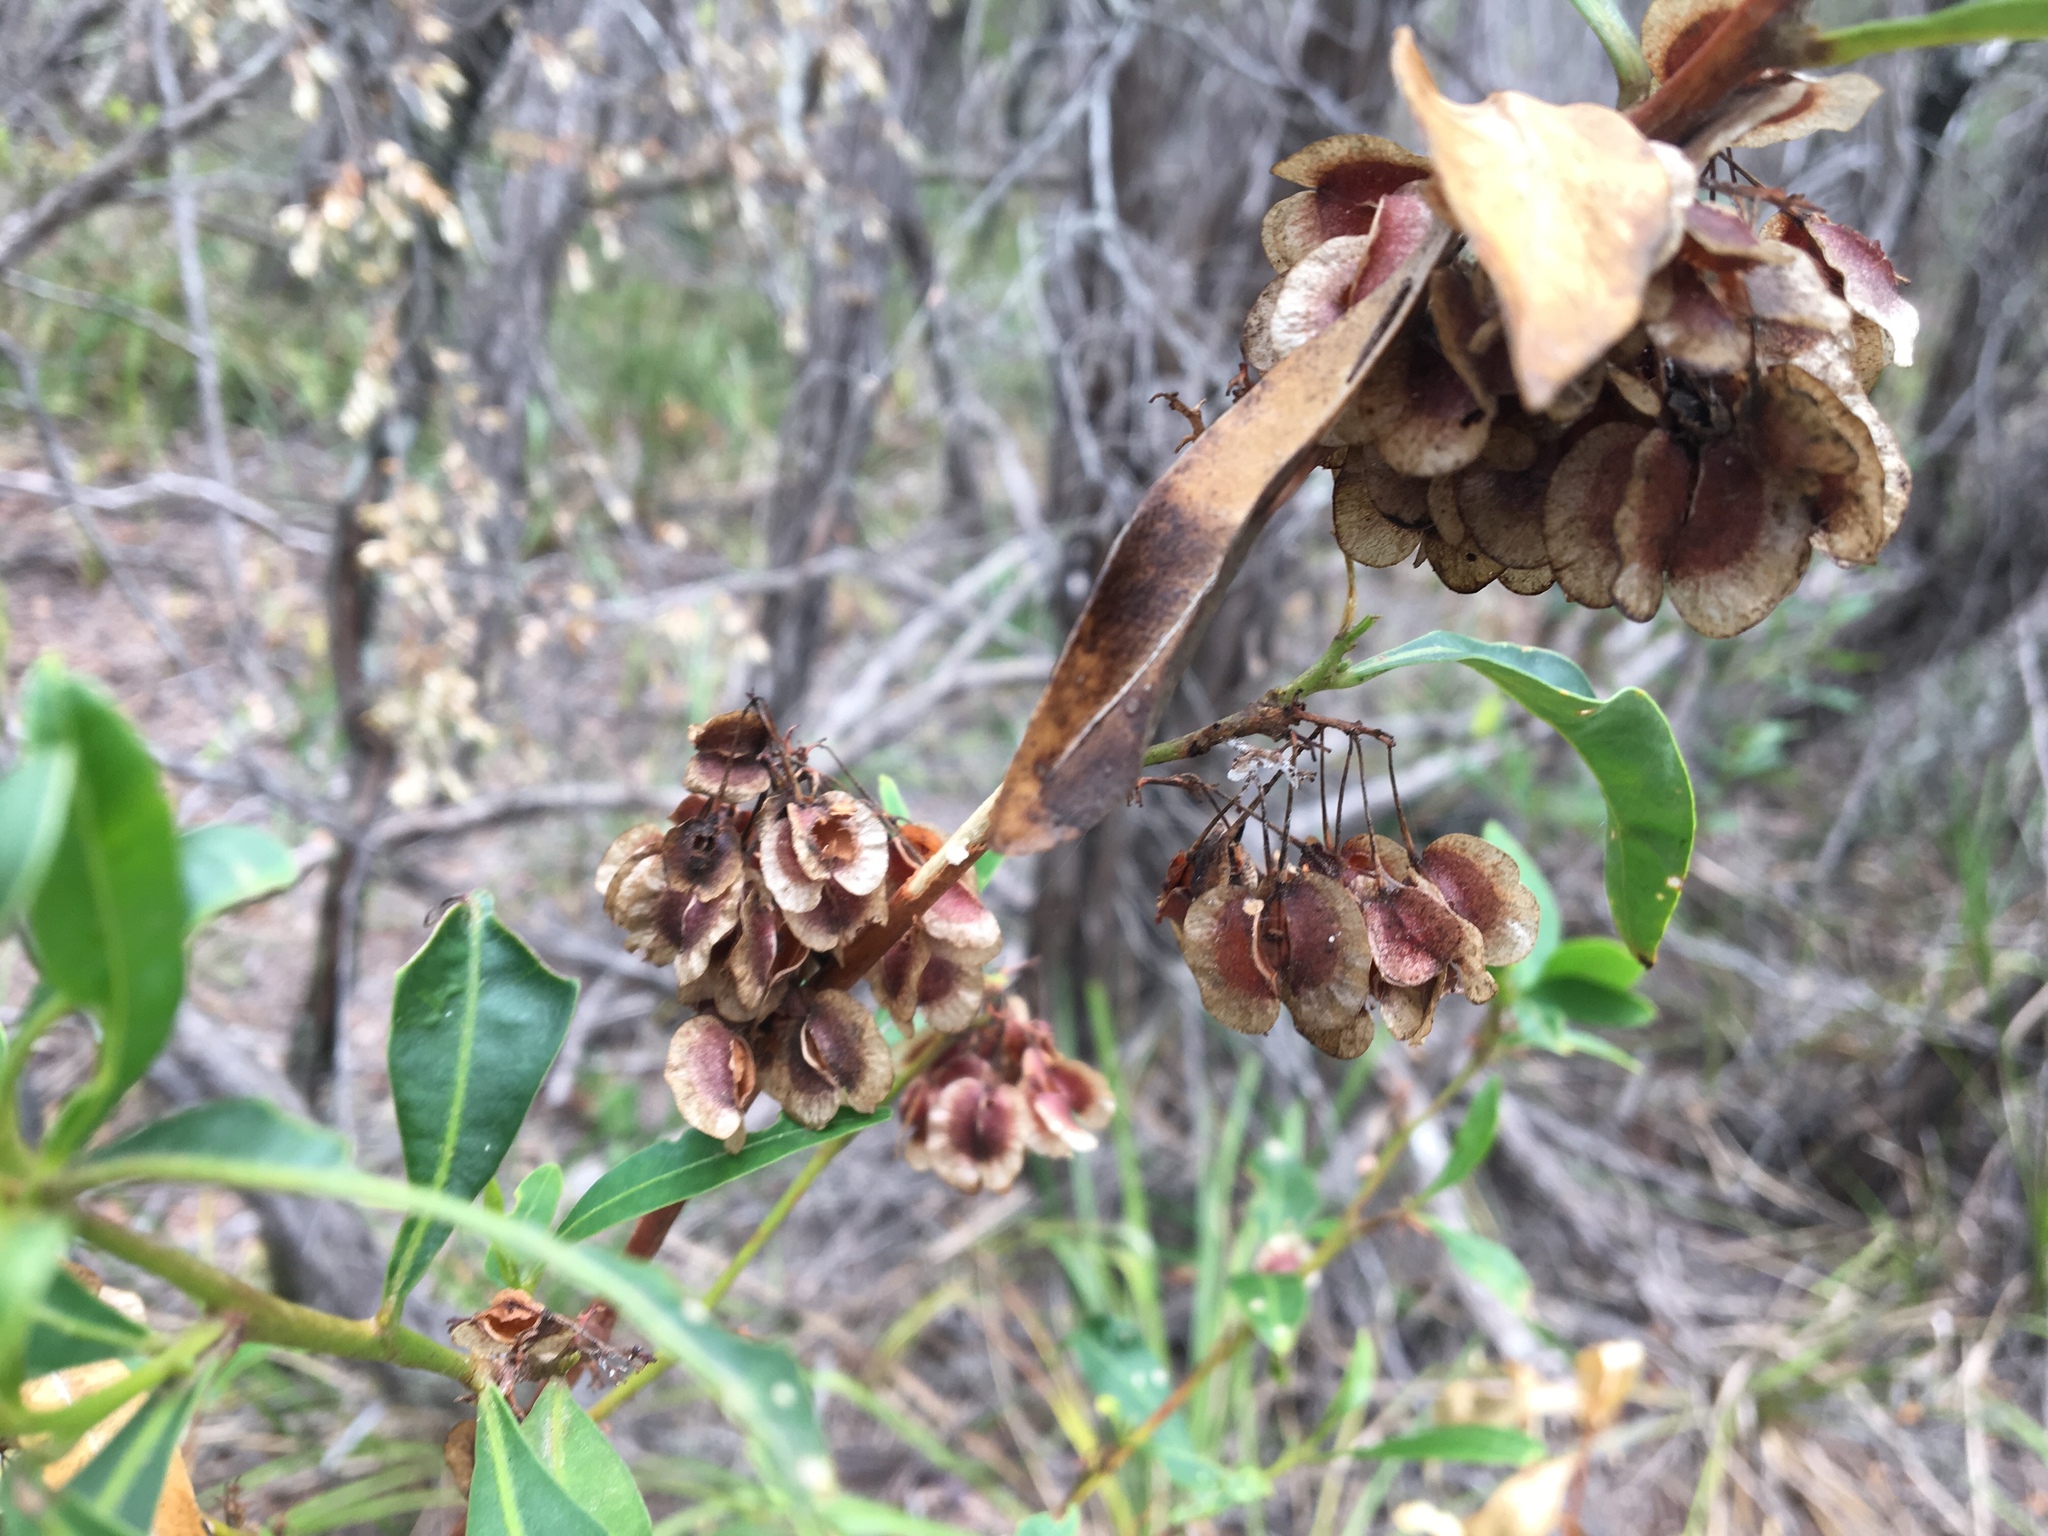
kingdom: Plantae
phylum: Tracheophyta
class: Magnoliopsida
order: Sapindales
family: Sapindaceae
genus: Dodonaea
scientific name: Dodonaea triquetra
